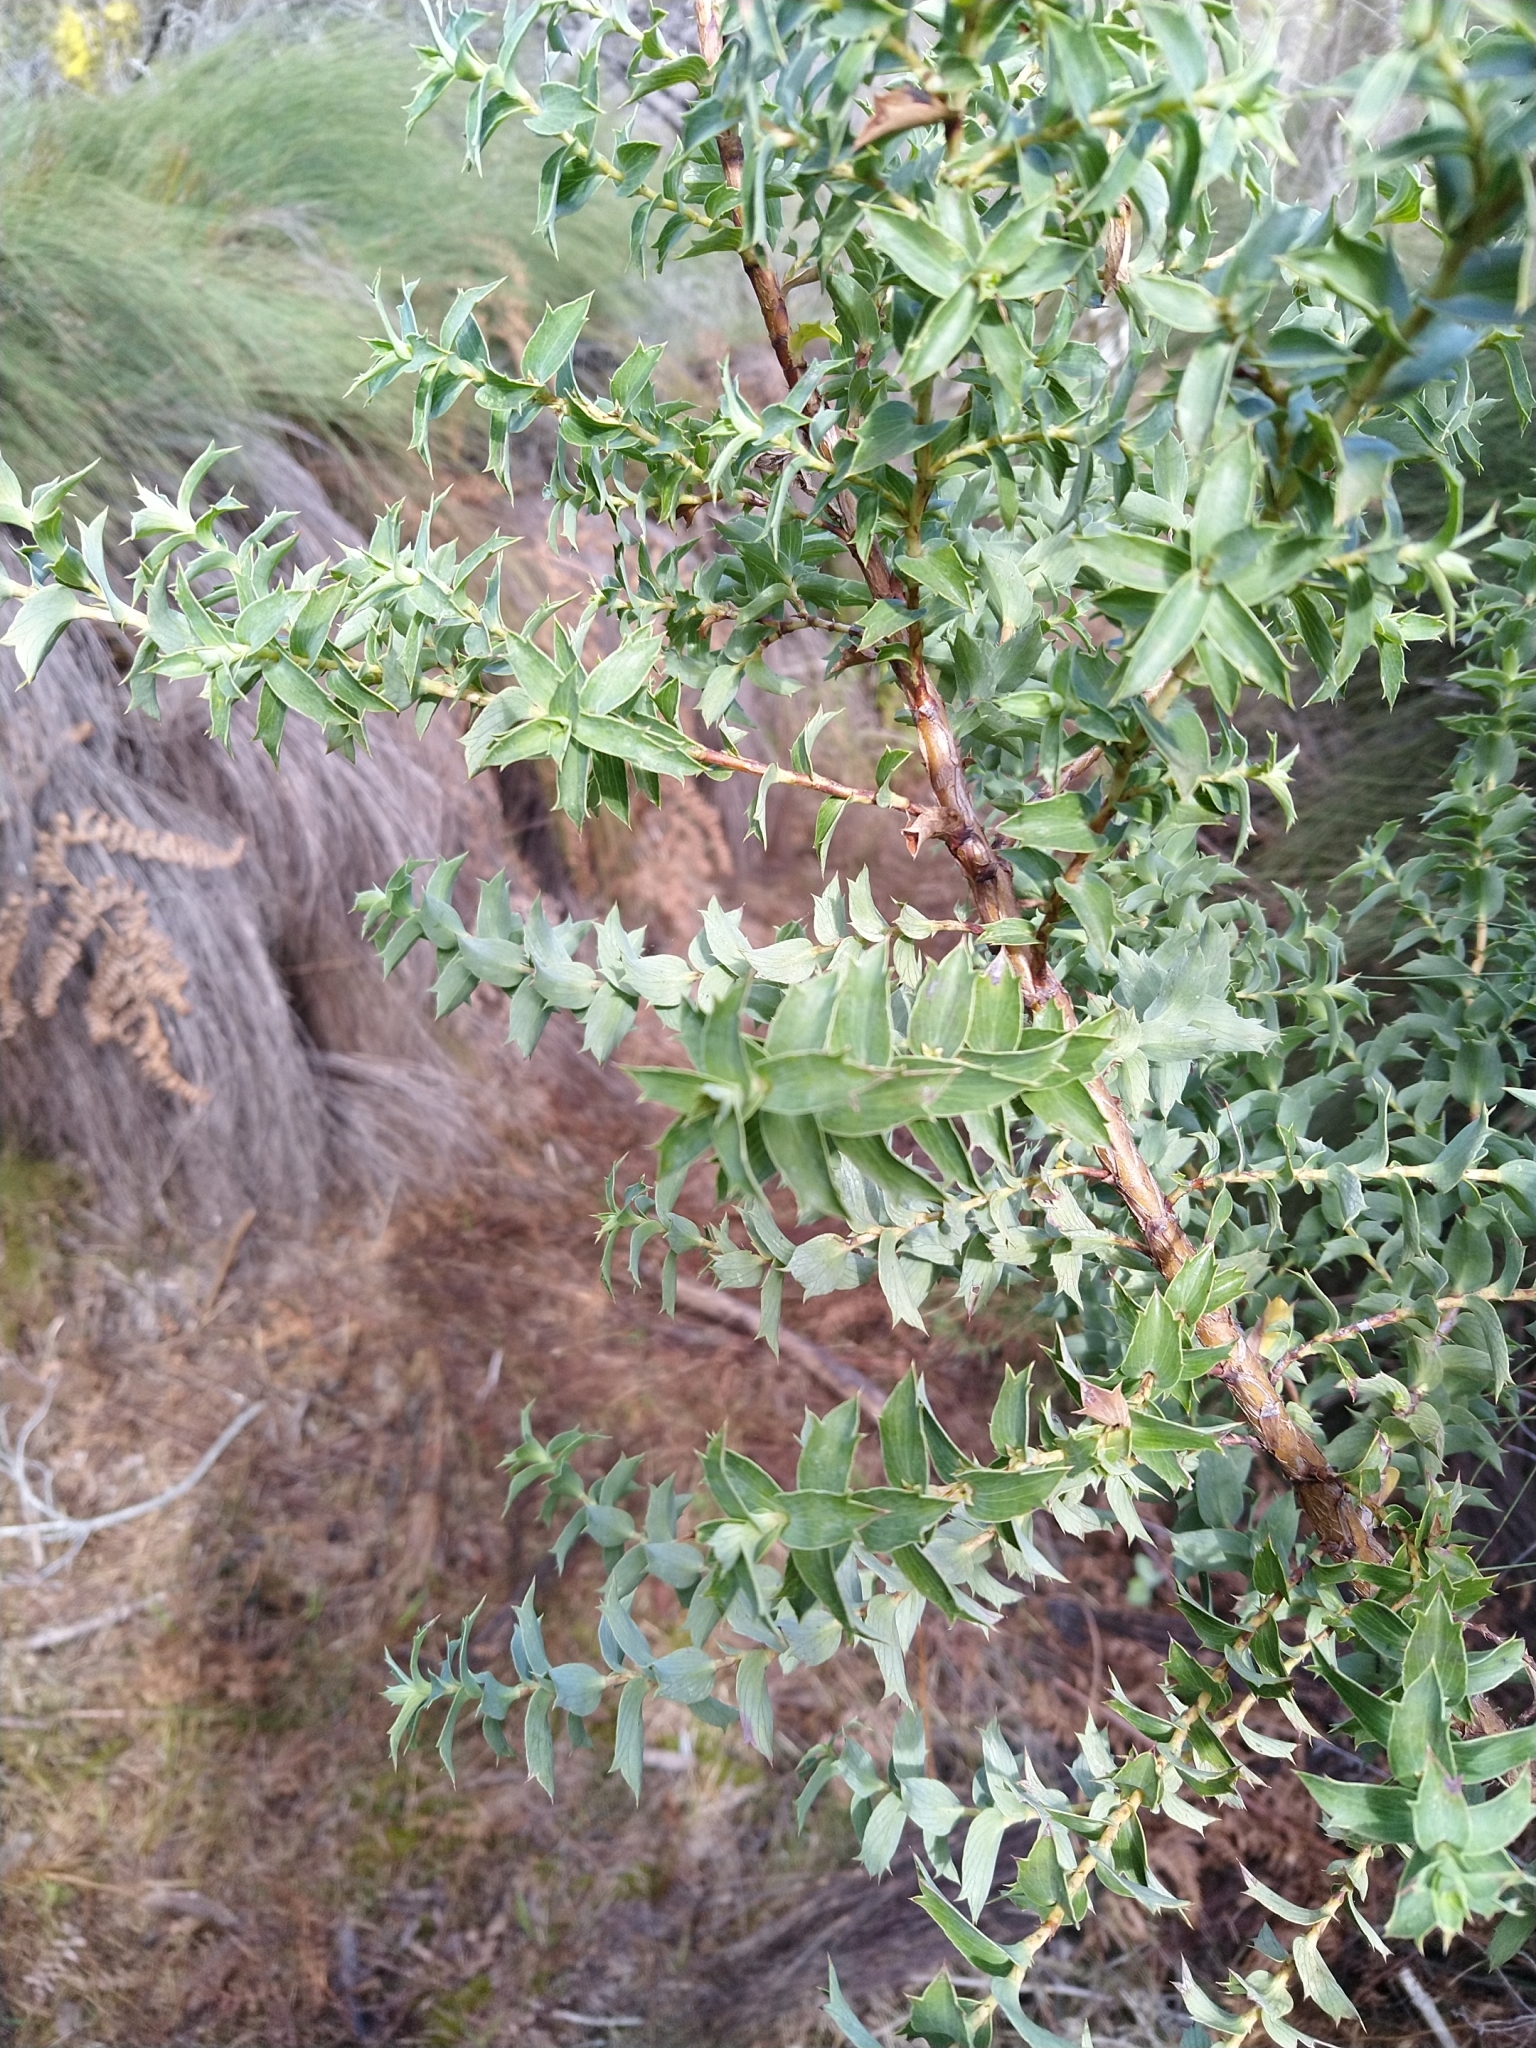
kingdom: Plantae
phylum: Tracheophyta
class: Magnoliopsida
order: Rosales
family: Rosaceae
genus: Cliffortia
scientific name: Cliffortia ilicifolia
